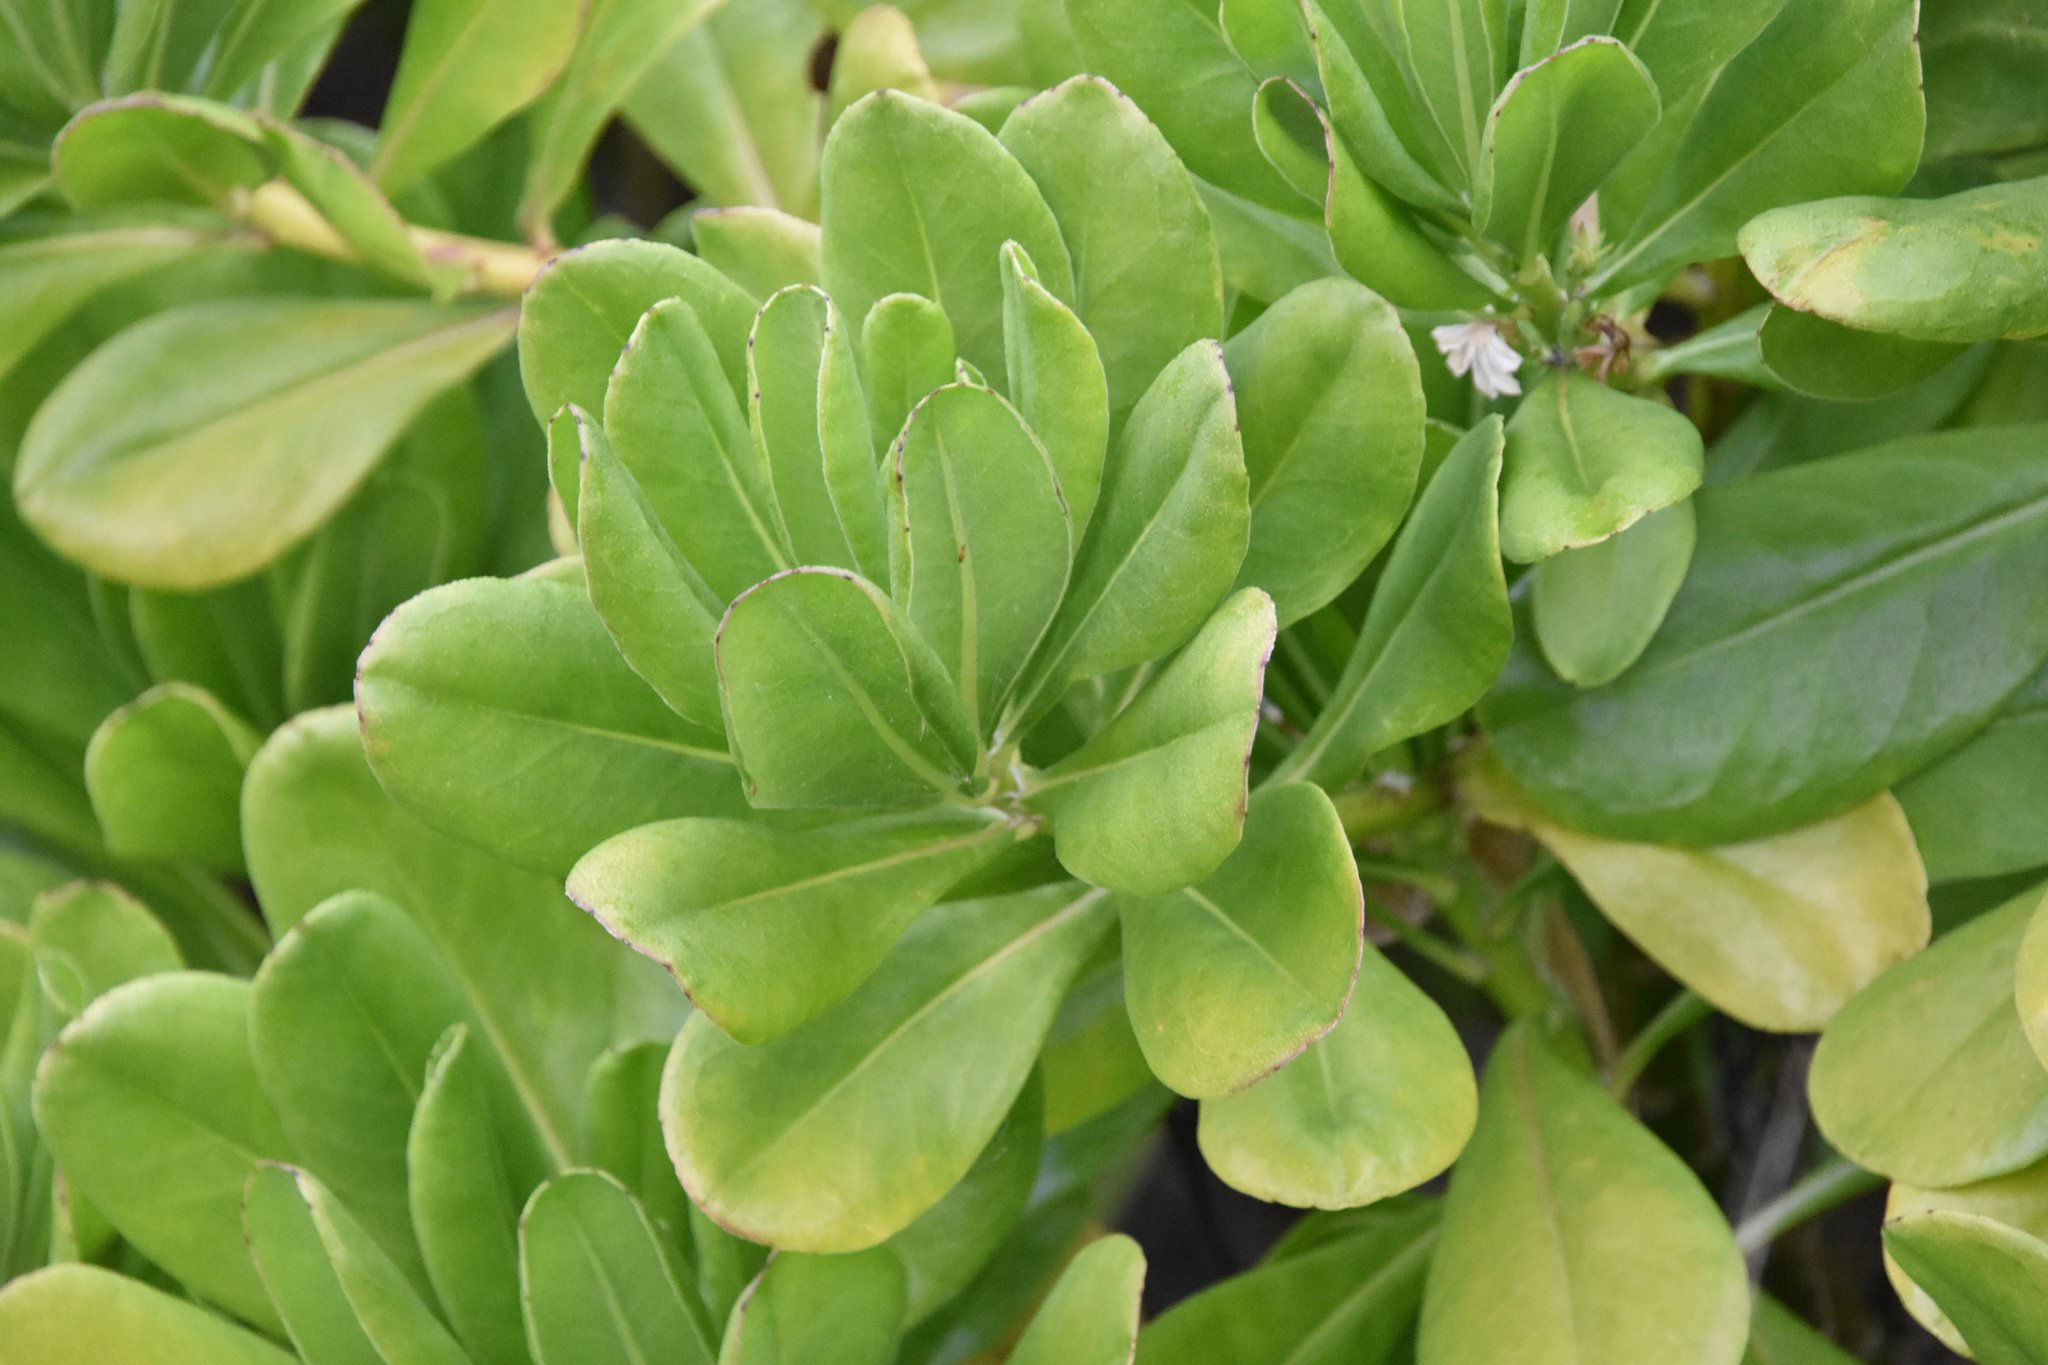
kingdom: Plantae
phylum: Tracheophyta
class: Magnoliopsida
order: Asterales
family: Goodeniaceae
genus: Scaevola
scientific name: Scaevola taccada
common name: Sea lettucetree
